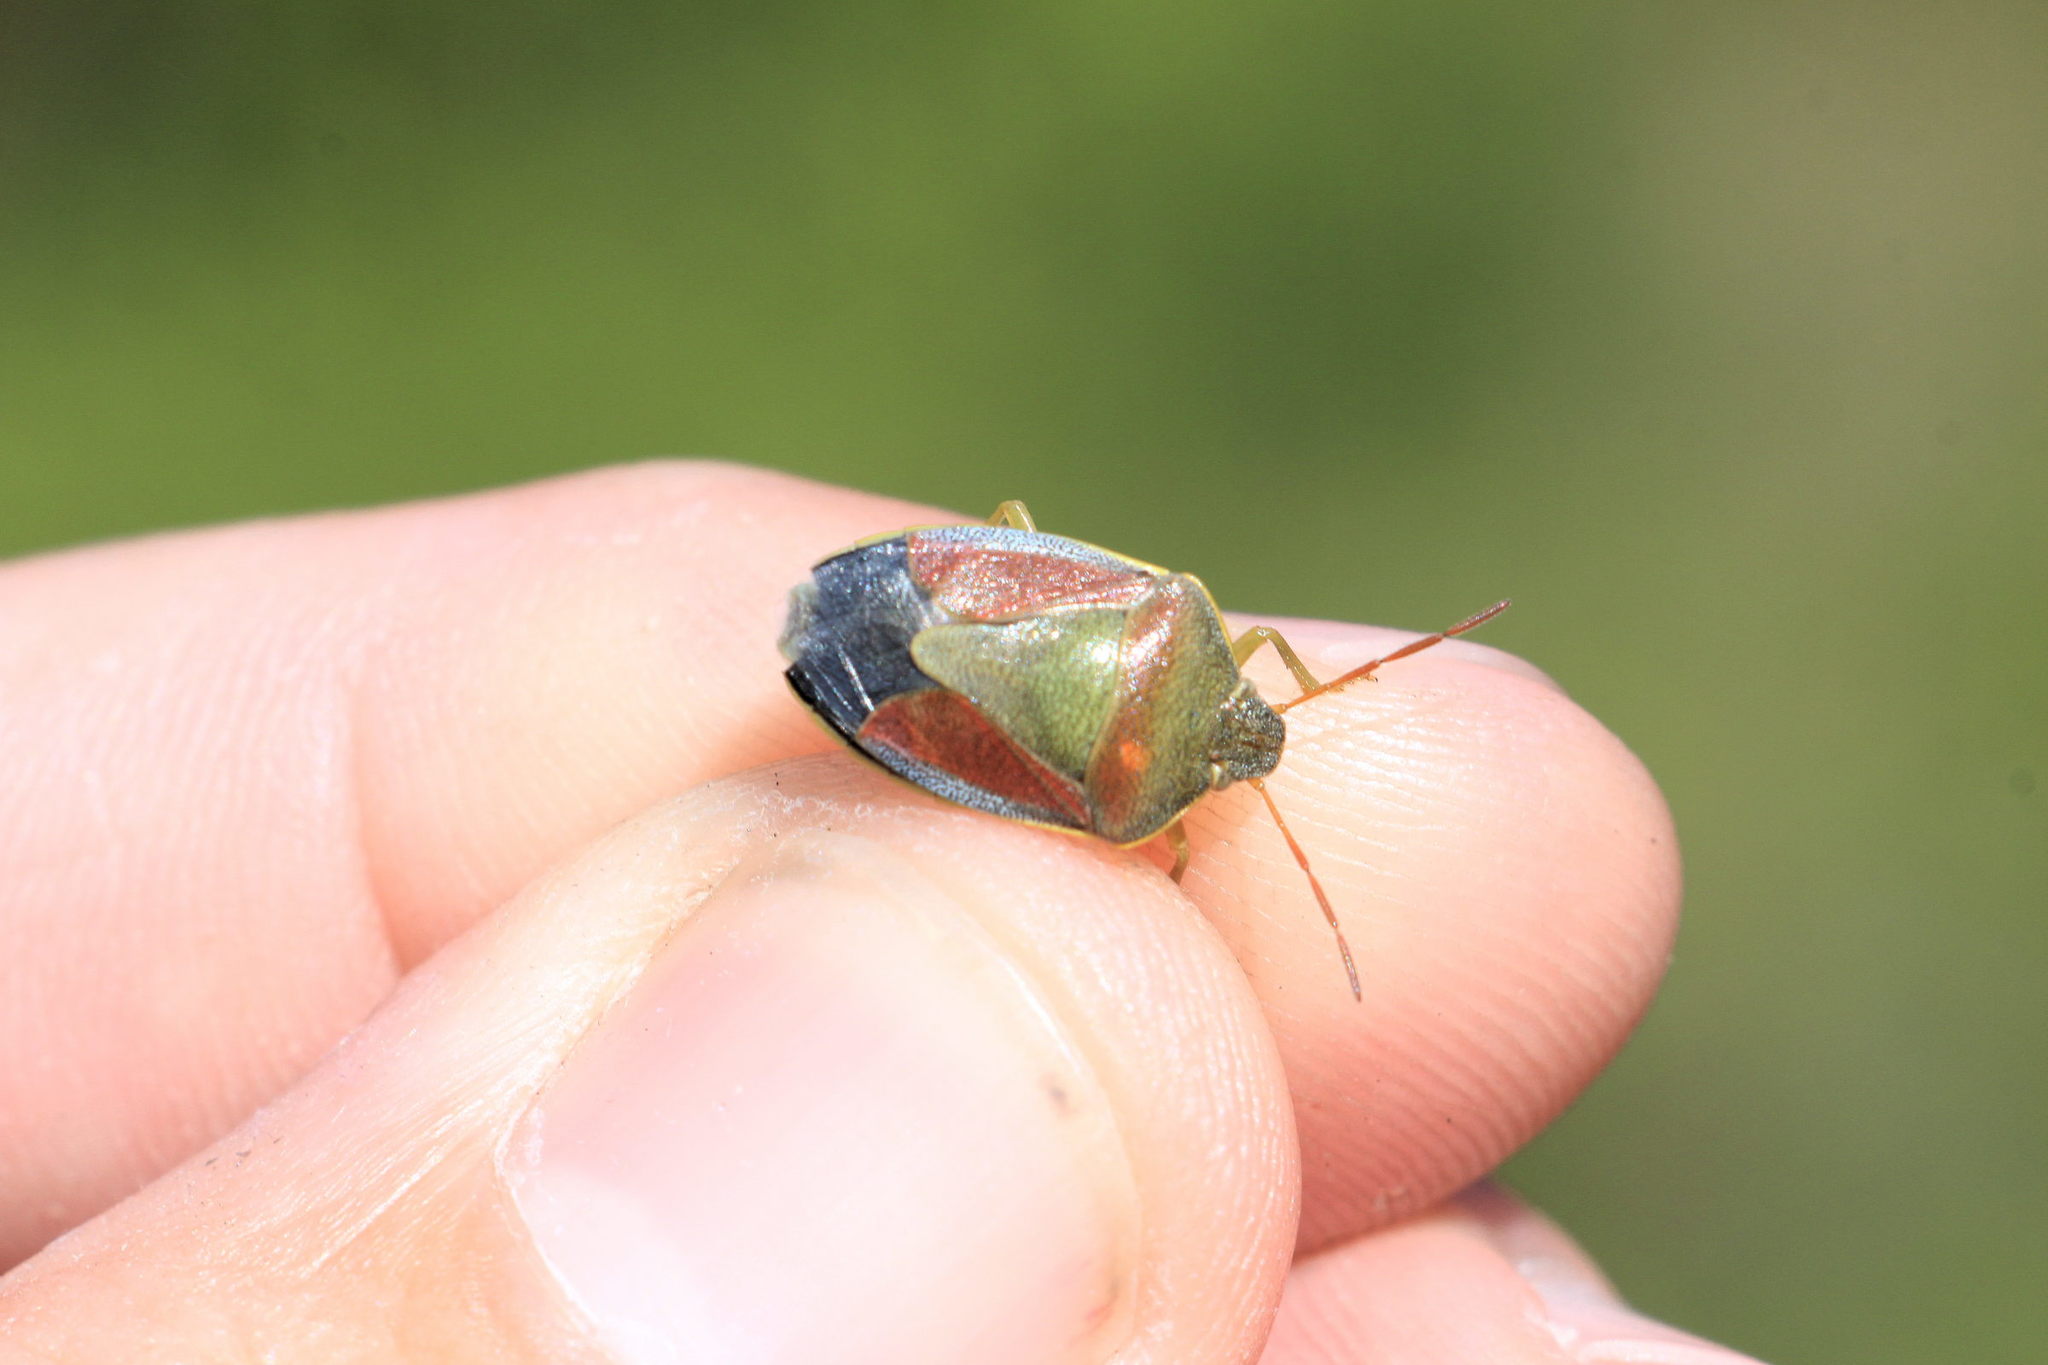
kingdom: Animalia
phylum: Arthropoda
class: Insecta
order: Hemiptera
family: Pentatomidae
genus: Piezodorus
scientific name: Piezodorus lituratus
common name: Stink bug
